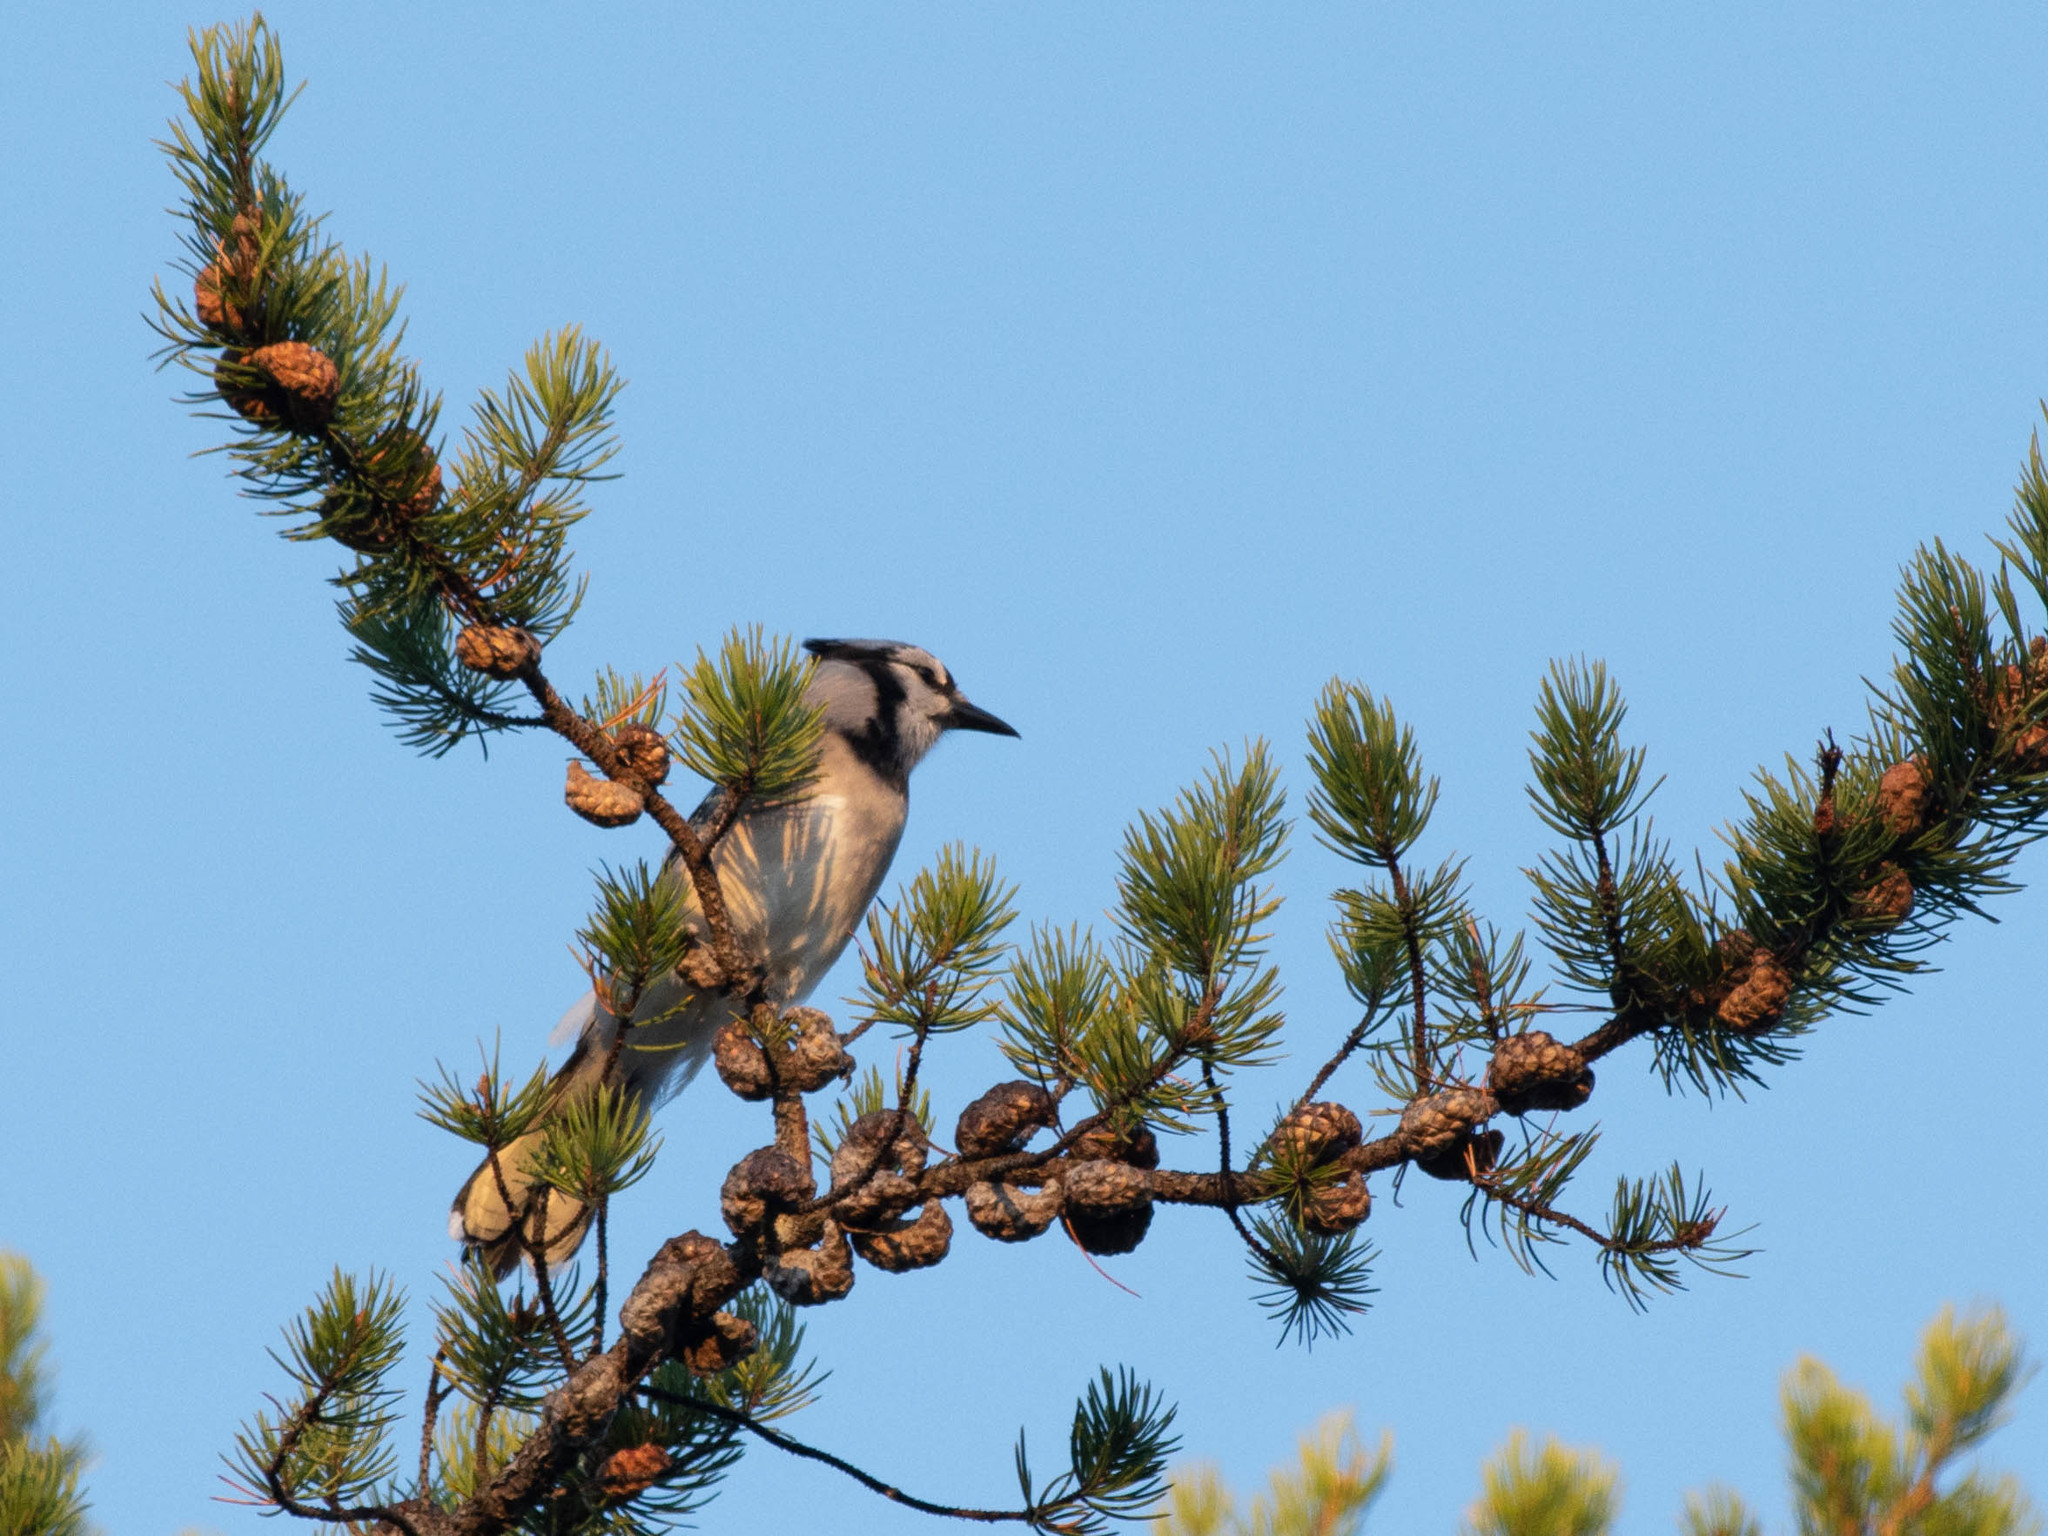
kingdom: Animalia
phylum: Chordata
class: Aves
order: Passeriformes
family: Corvidae
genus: Cyanocitta
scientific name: Cyanocitta cristata
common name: Blue jay
